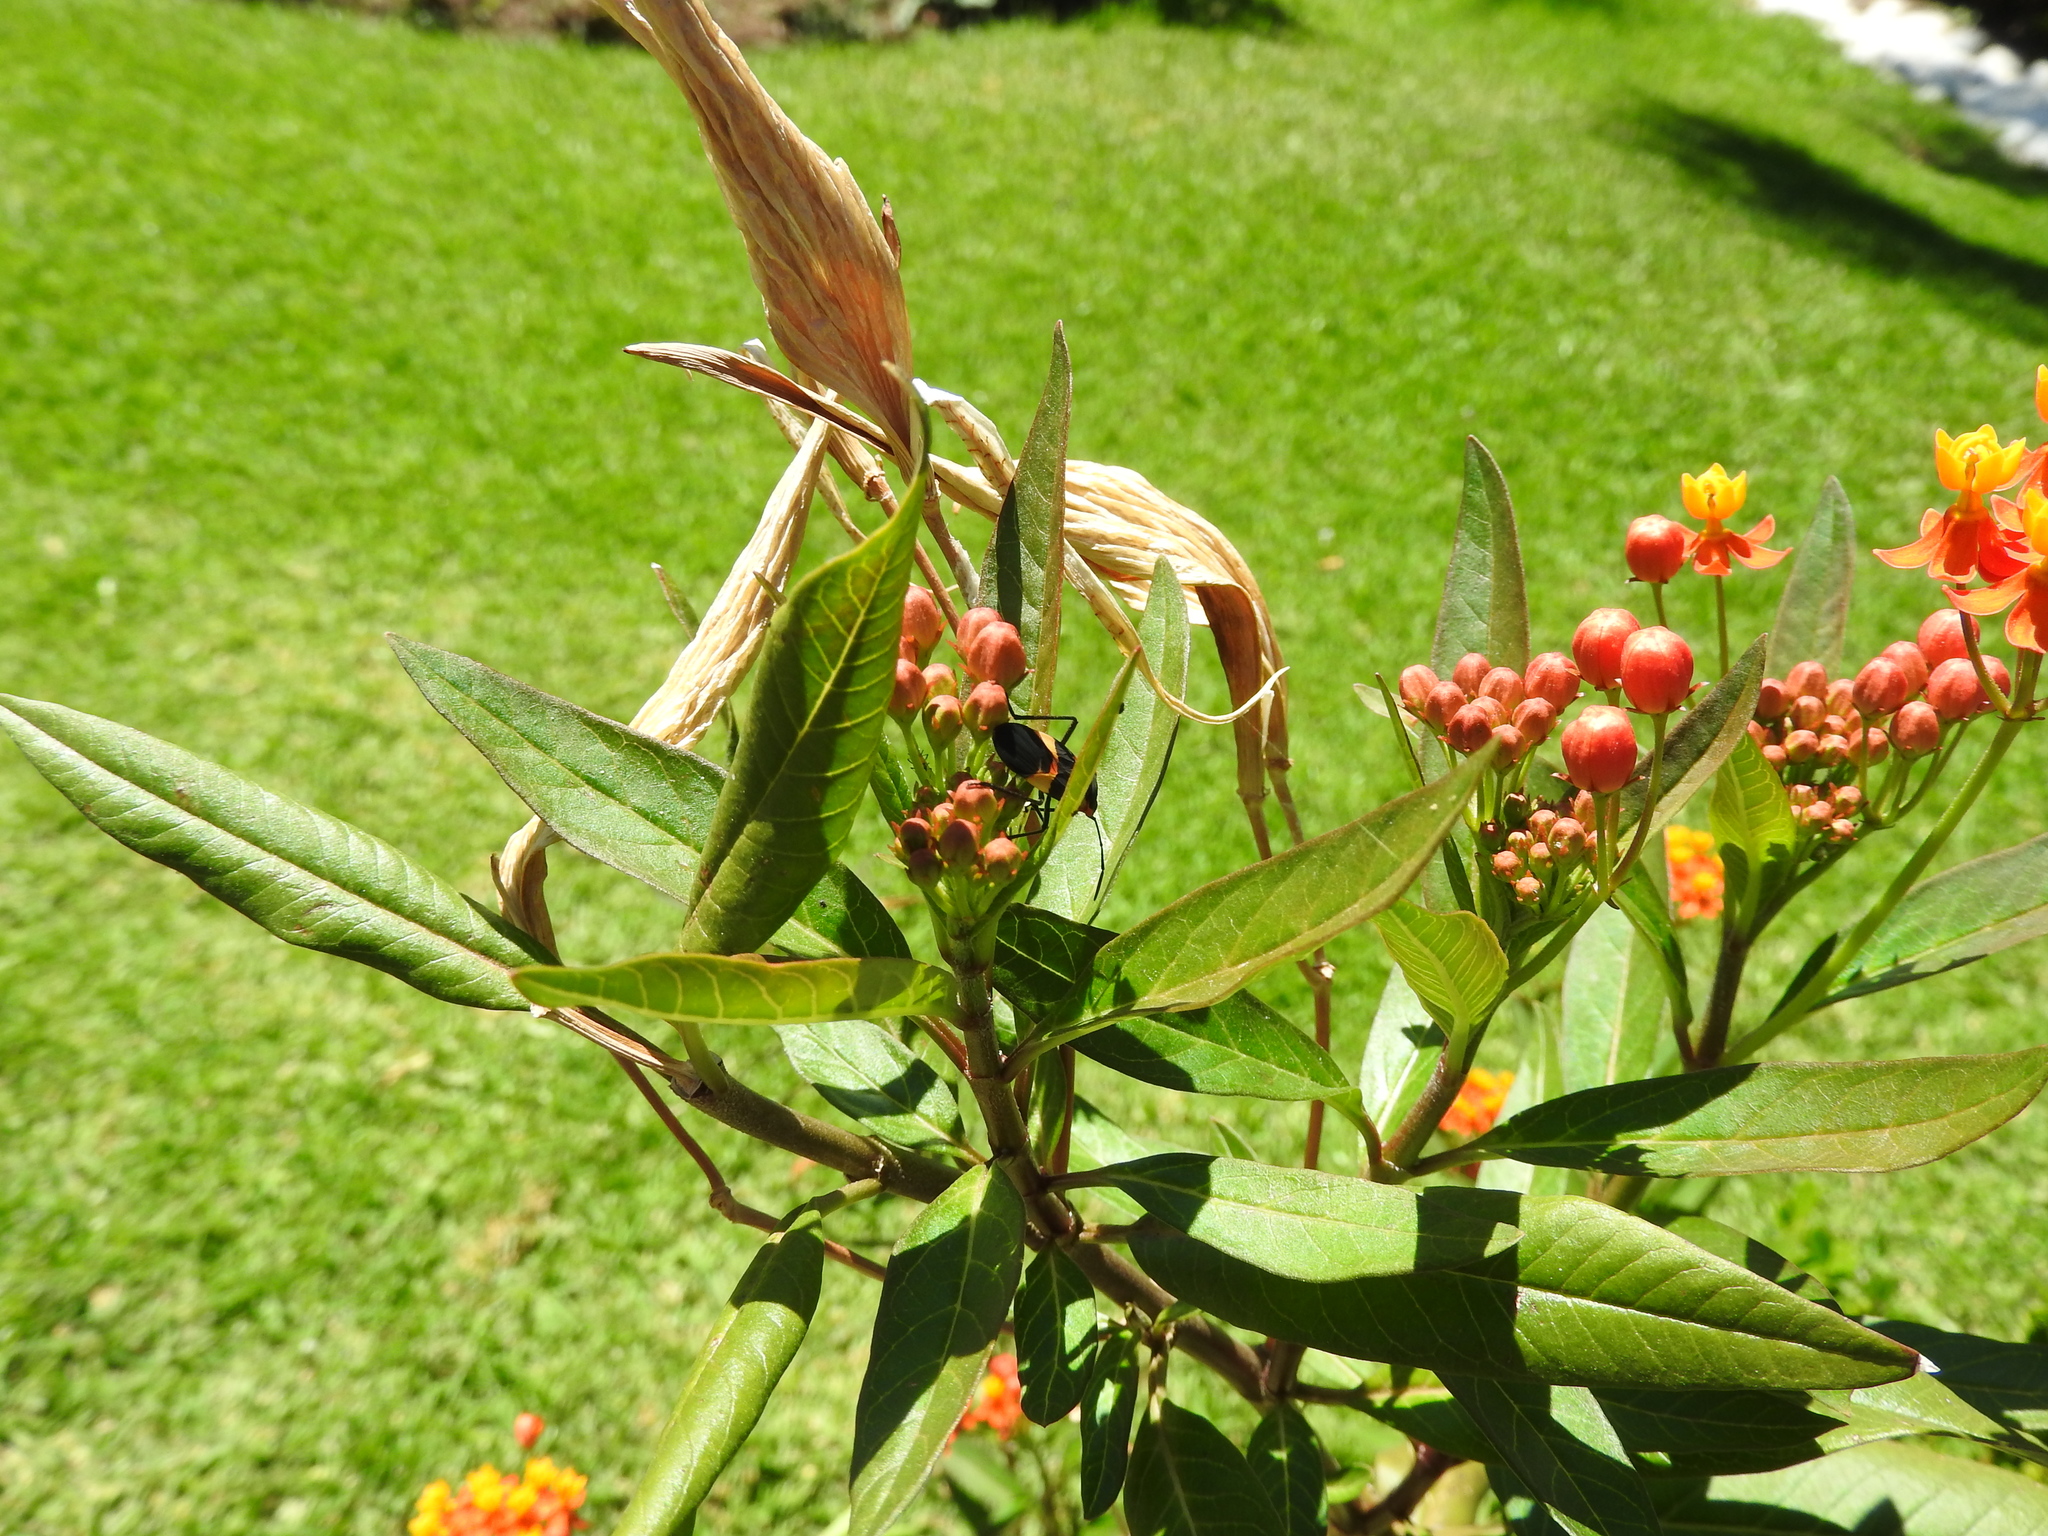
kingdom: Animalia
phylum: Arthropoda
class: Insecta
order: Hemiptera
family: Lygaeidae
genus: Oncopeltus
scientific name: Oncopeltus fasciatus
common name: Large milkweed bug
